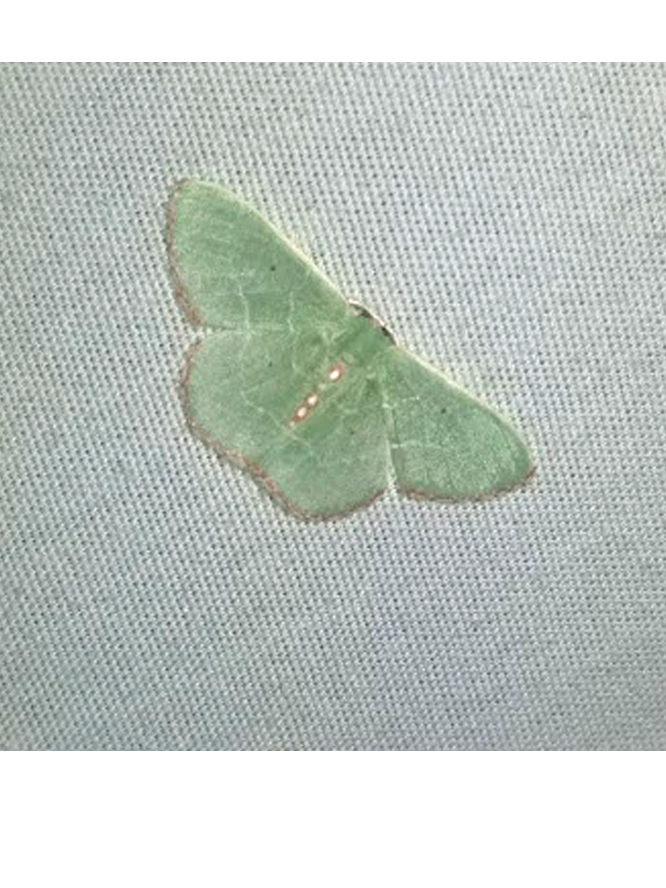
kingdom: Animalia
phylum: Arthropoda
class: Insecta
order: Lepidoptera
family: Geometridae
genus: Nemoria
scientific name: Nemoria lixaria
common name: Red-bordered emerald
